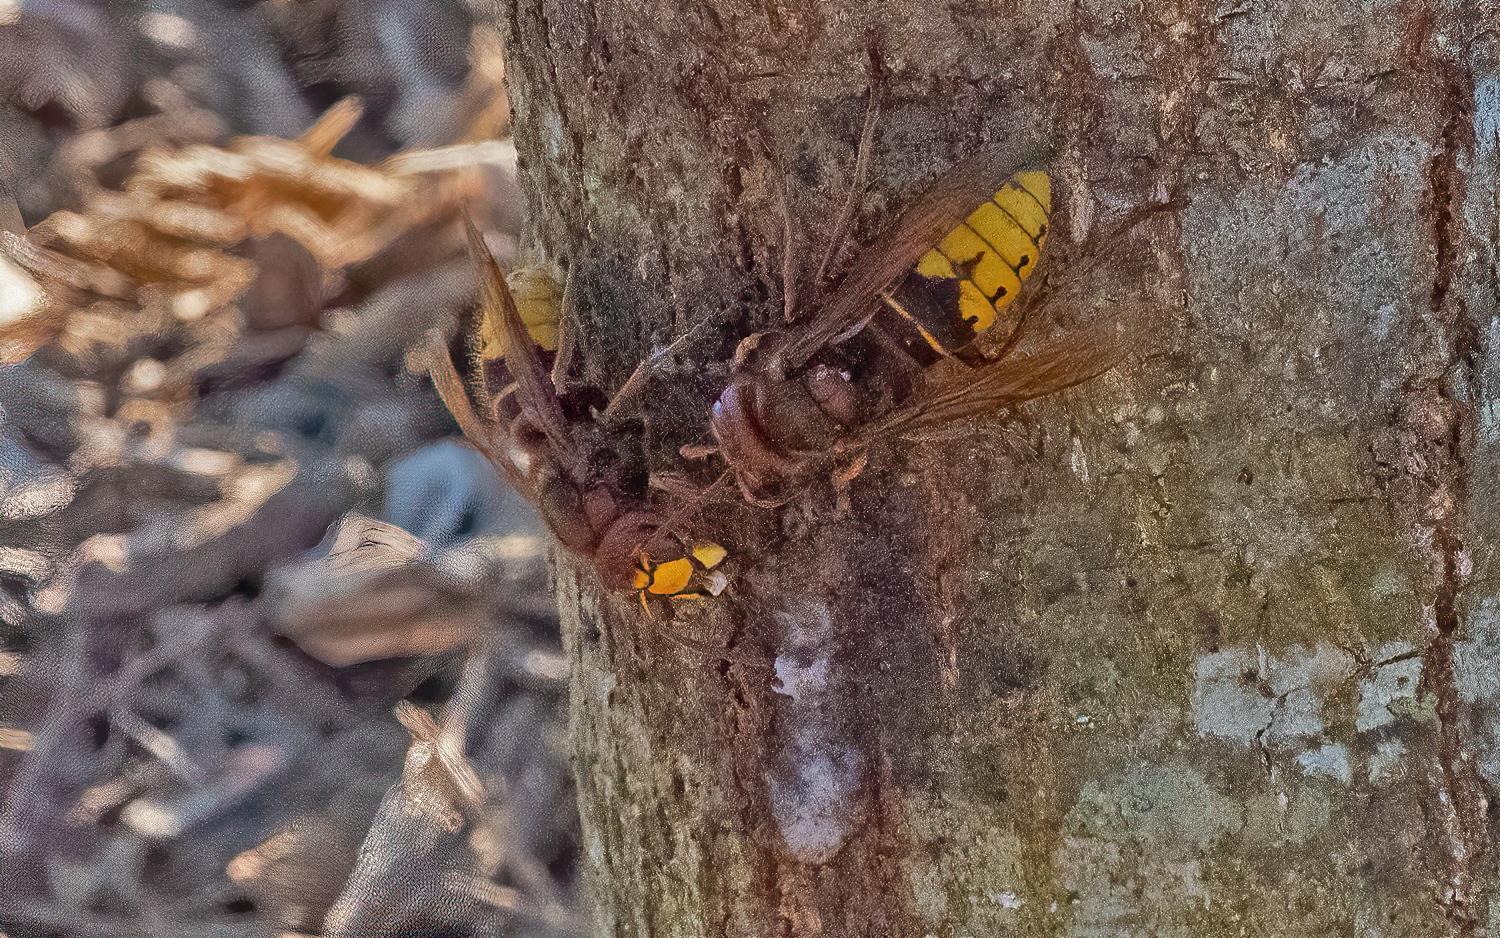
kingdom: Animalia
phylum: Arthropoda
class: Insecta
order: Hymenoptera
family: Vespidae
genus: Vespa
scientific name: Vespa crabro
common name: Hornet
